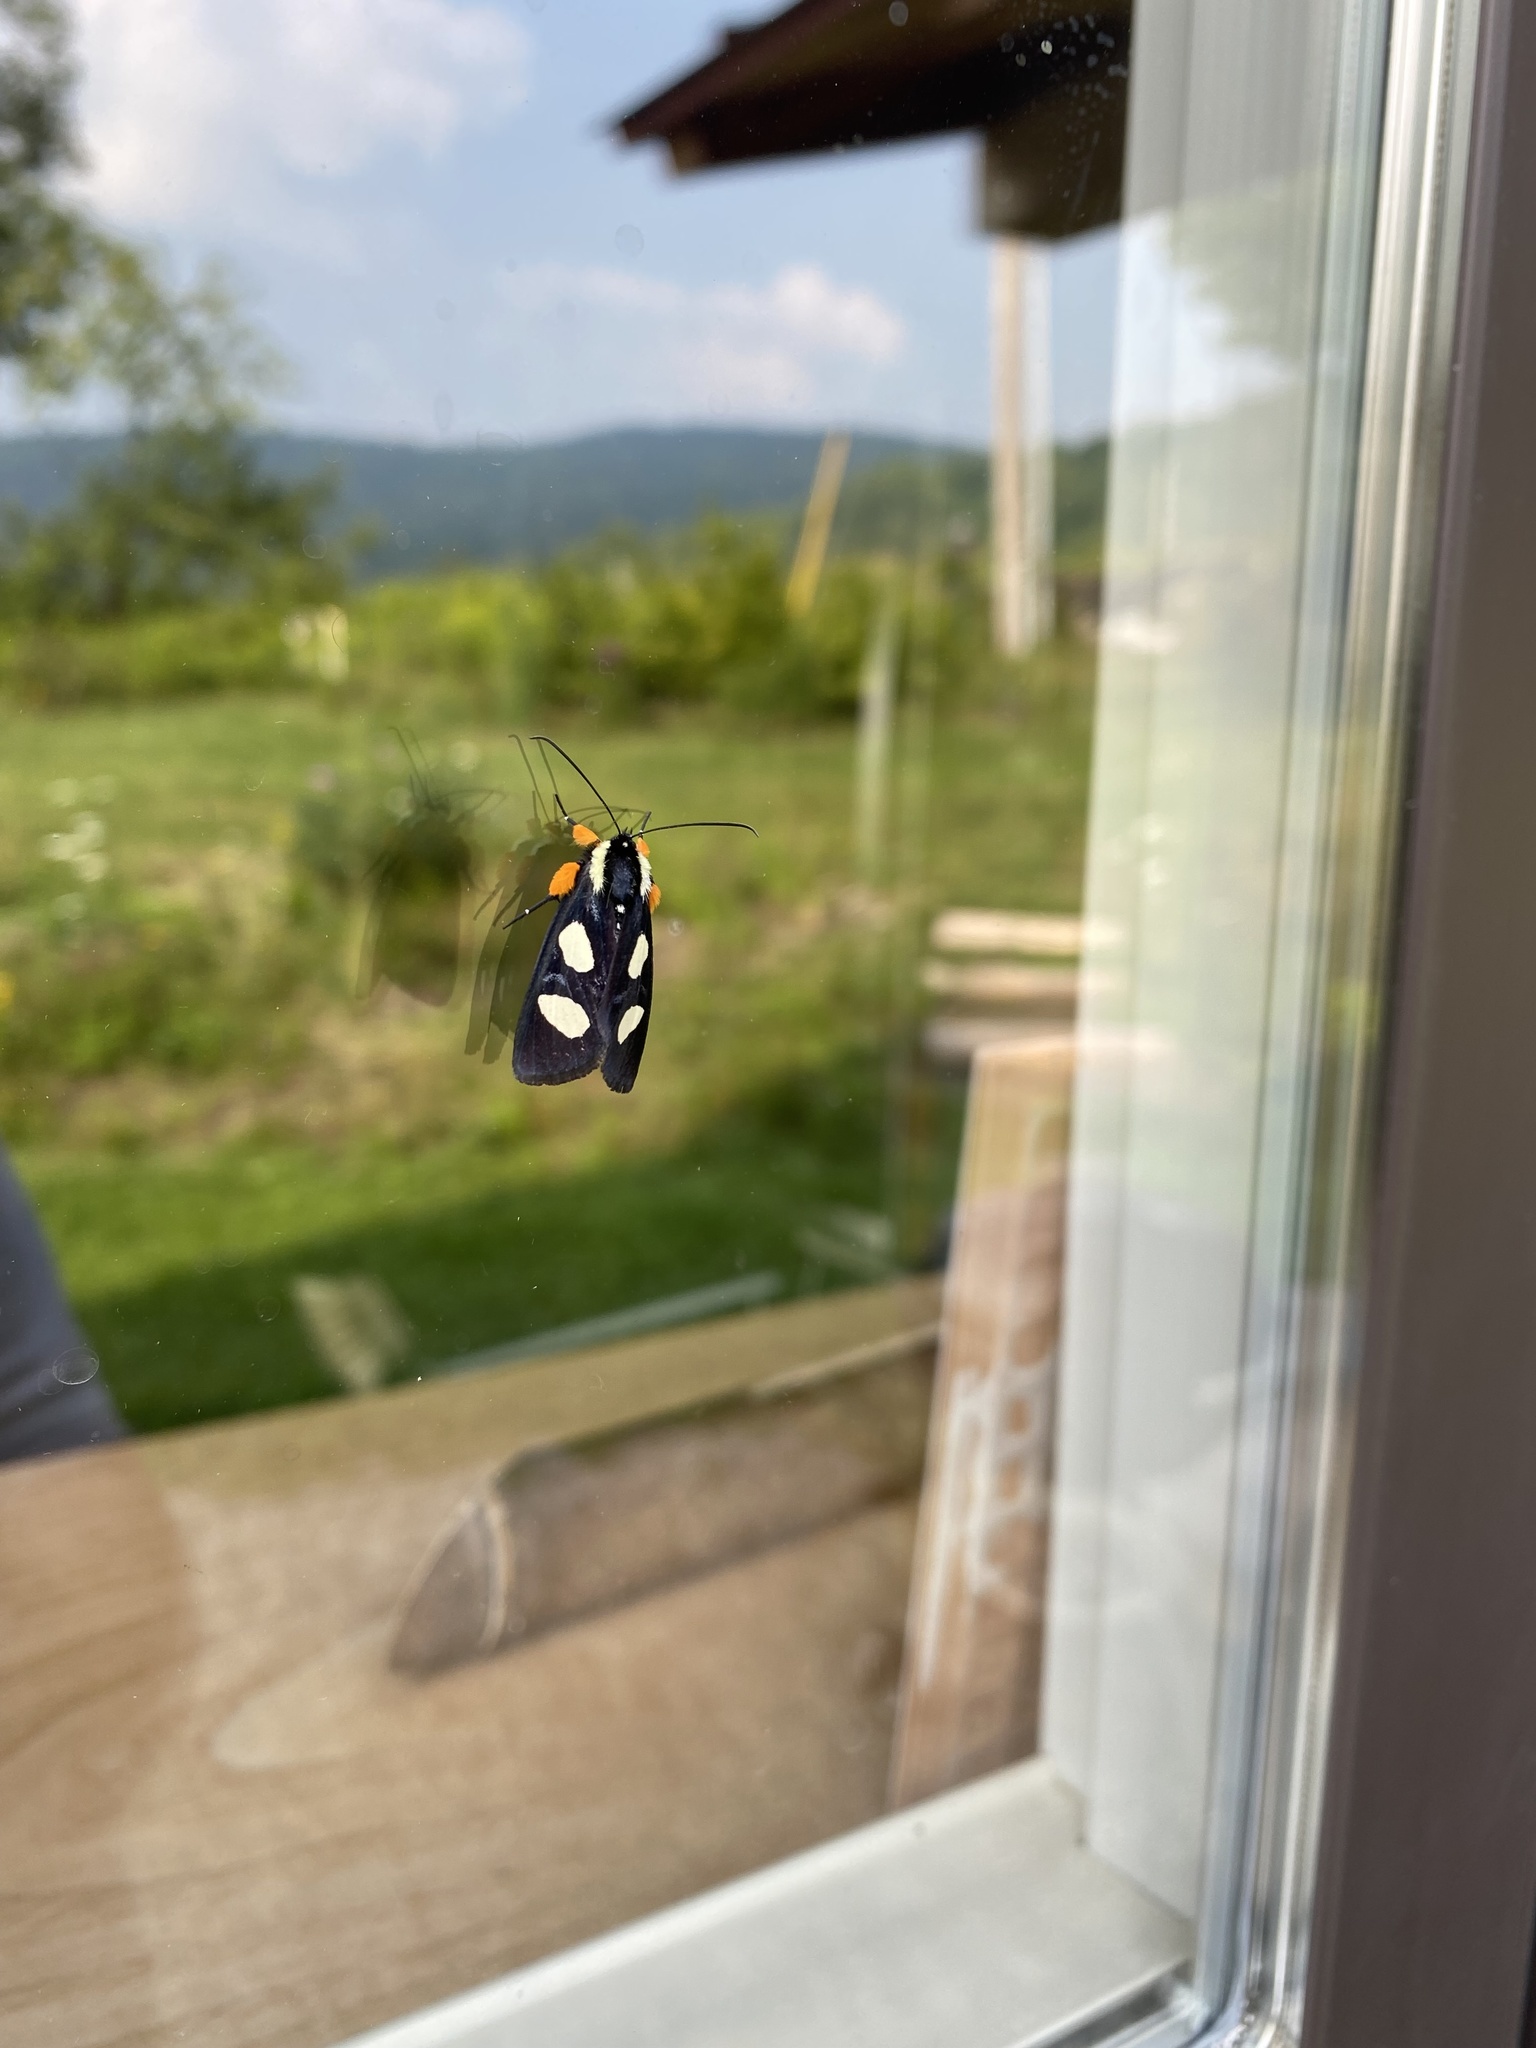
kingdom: Animalia
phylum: Arthropoda
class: Insecta
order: Lepidoptera
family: Noctuidae
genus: Alypia
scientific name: Alypia octomaculata
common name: Eight-spotted forester
